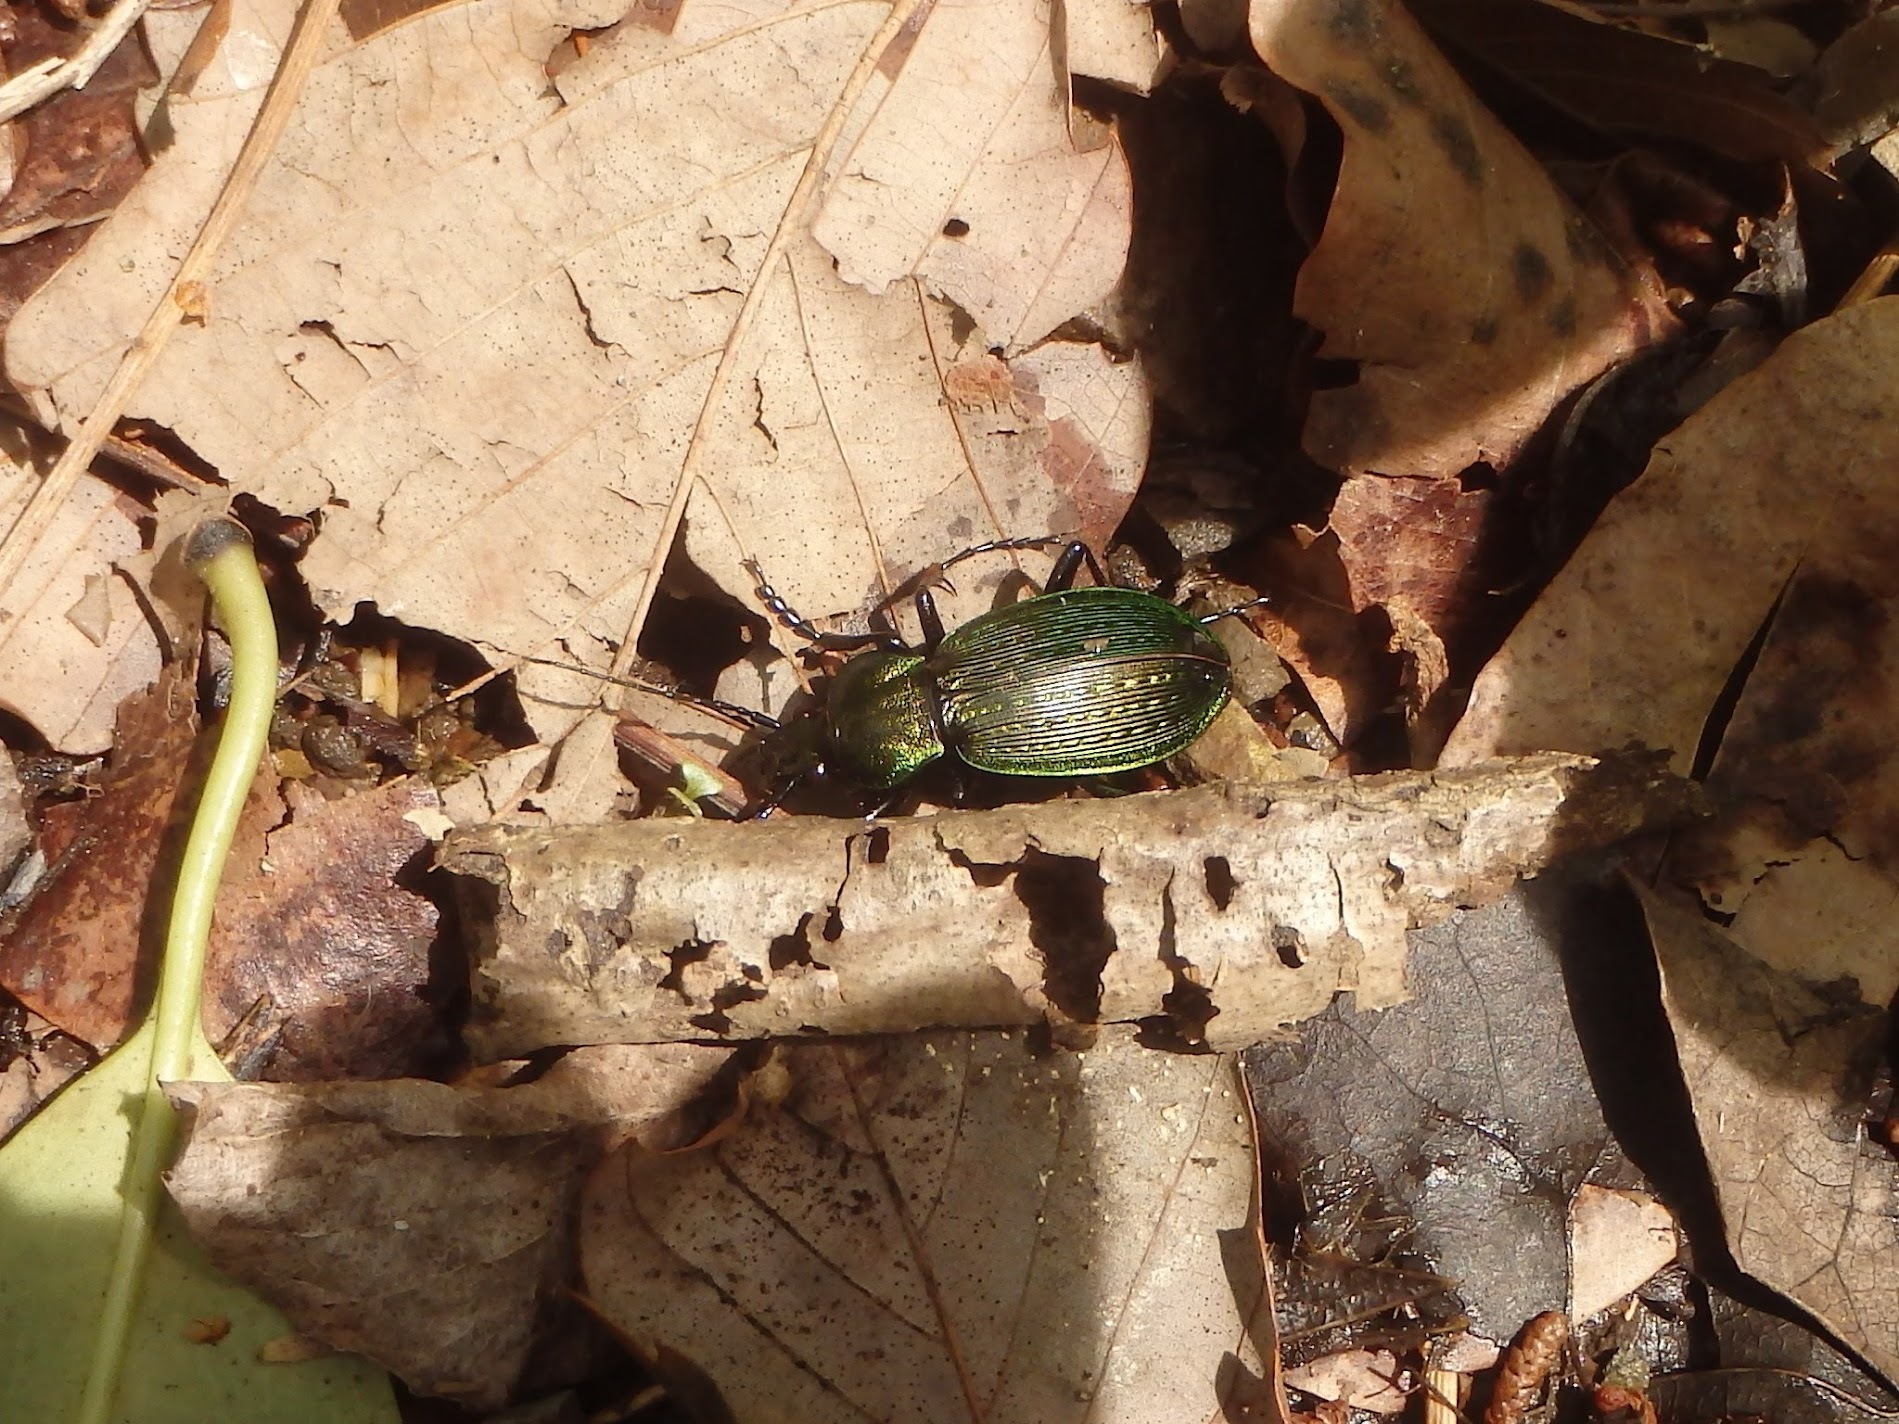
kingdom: Animalia
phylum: Arthropoda
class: Insecta
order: Coleoptera
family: Carabidae
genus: Carabus
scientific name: Carabus insulicola
